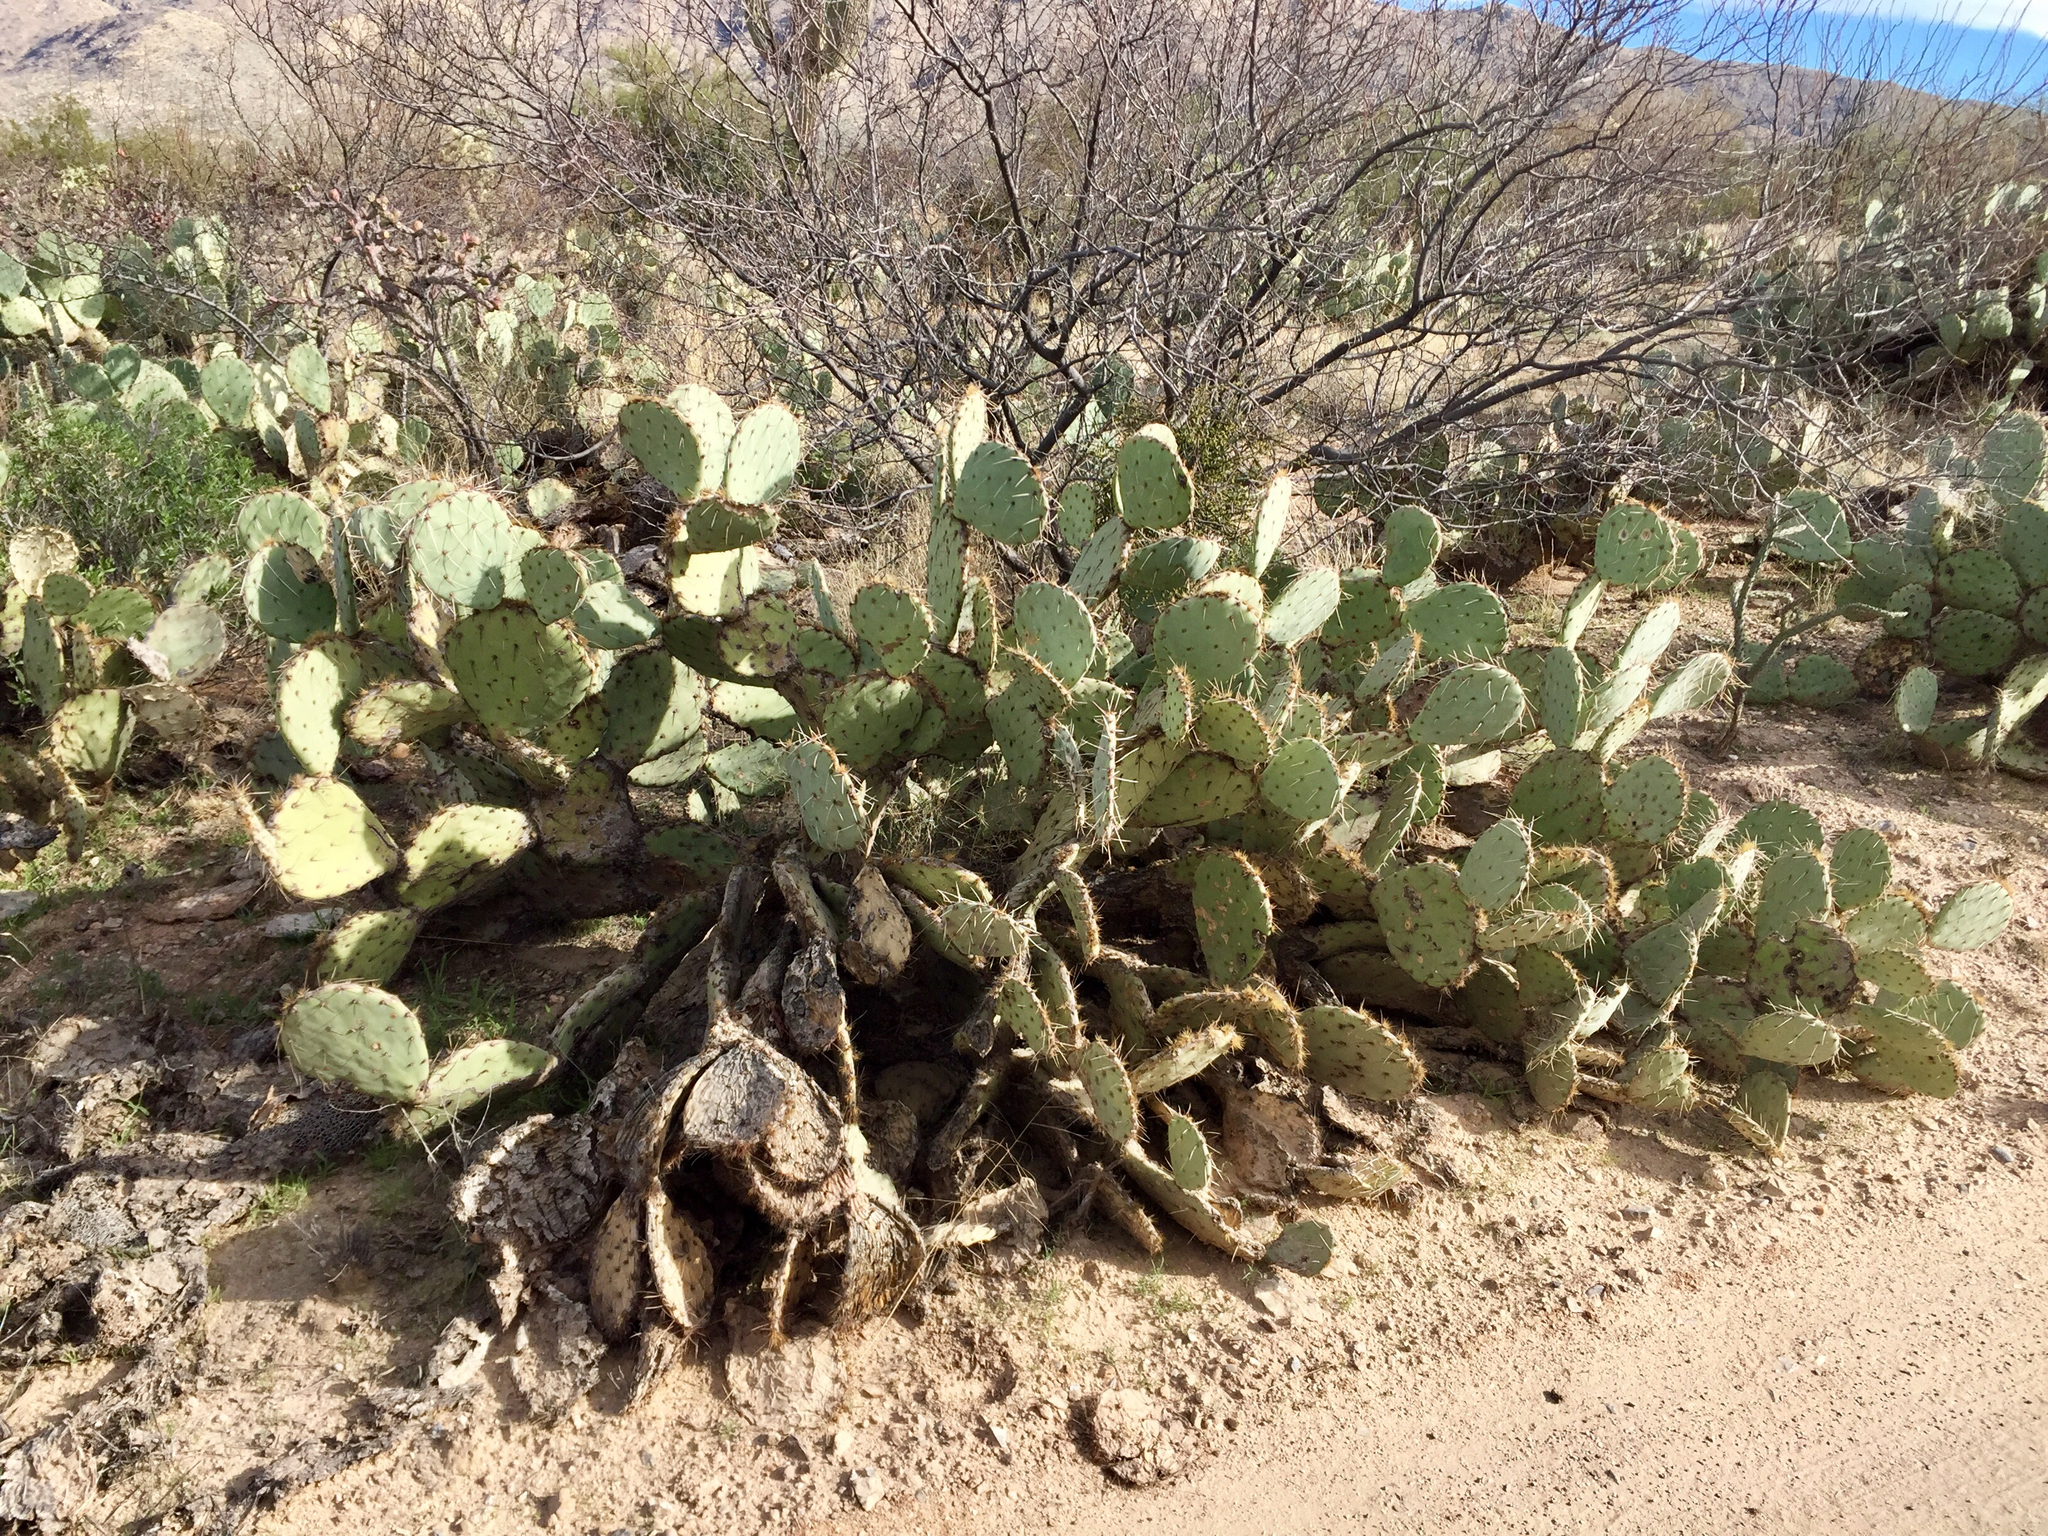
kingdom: Plantae
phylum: Tracheophyta
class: Magnoliopsida
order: Caryophyllales
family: Cactaceae
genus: Opuntia
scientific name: Opuntia phaeacantha
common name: New mexico prickly-pear
